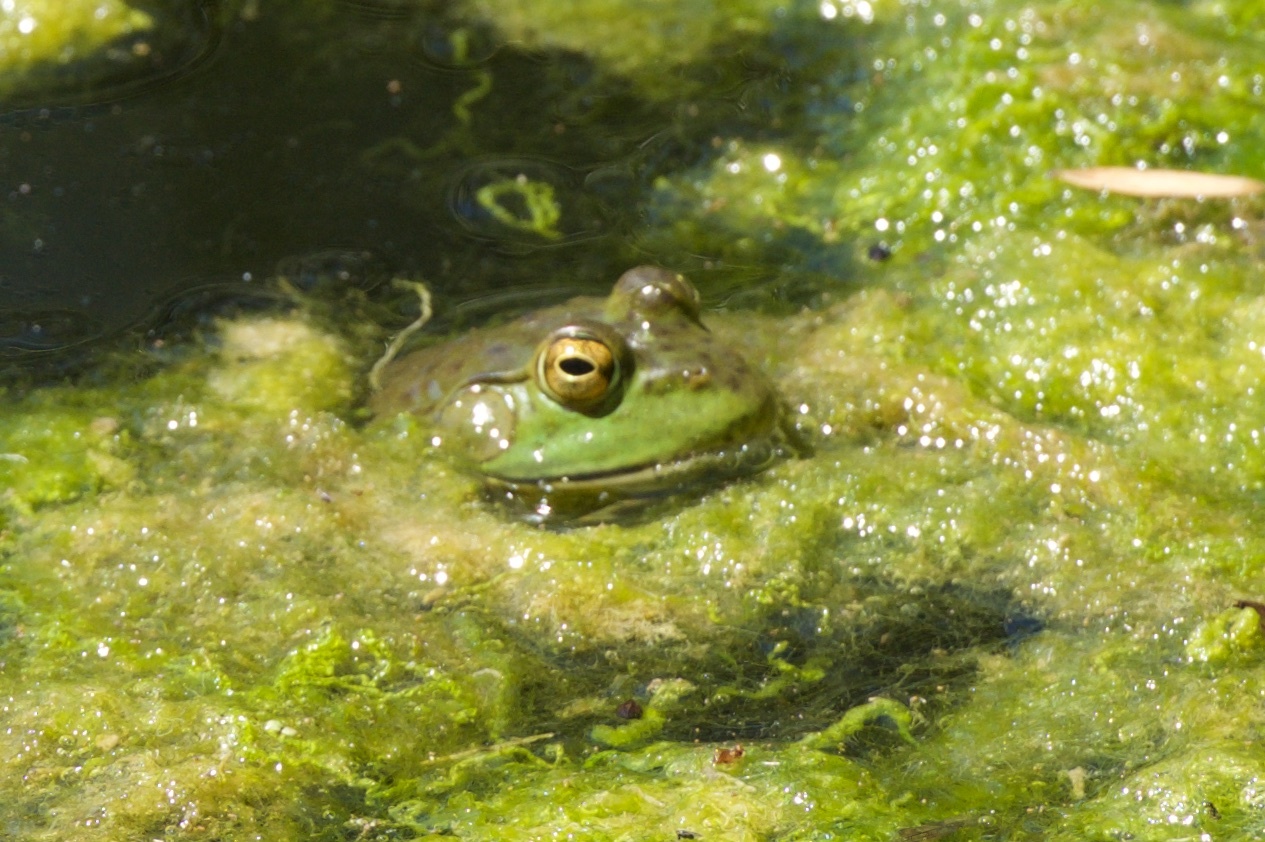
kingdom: Animalia
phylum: Chordata
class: Amphibia
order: Anura
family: Ranidae
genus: Lithobates
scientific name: Lithobates catesbeianus
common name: American bullfrog
